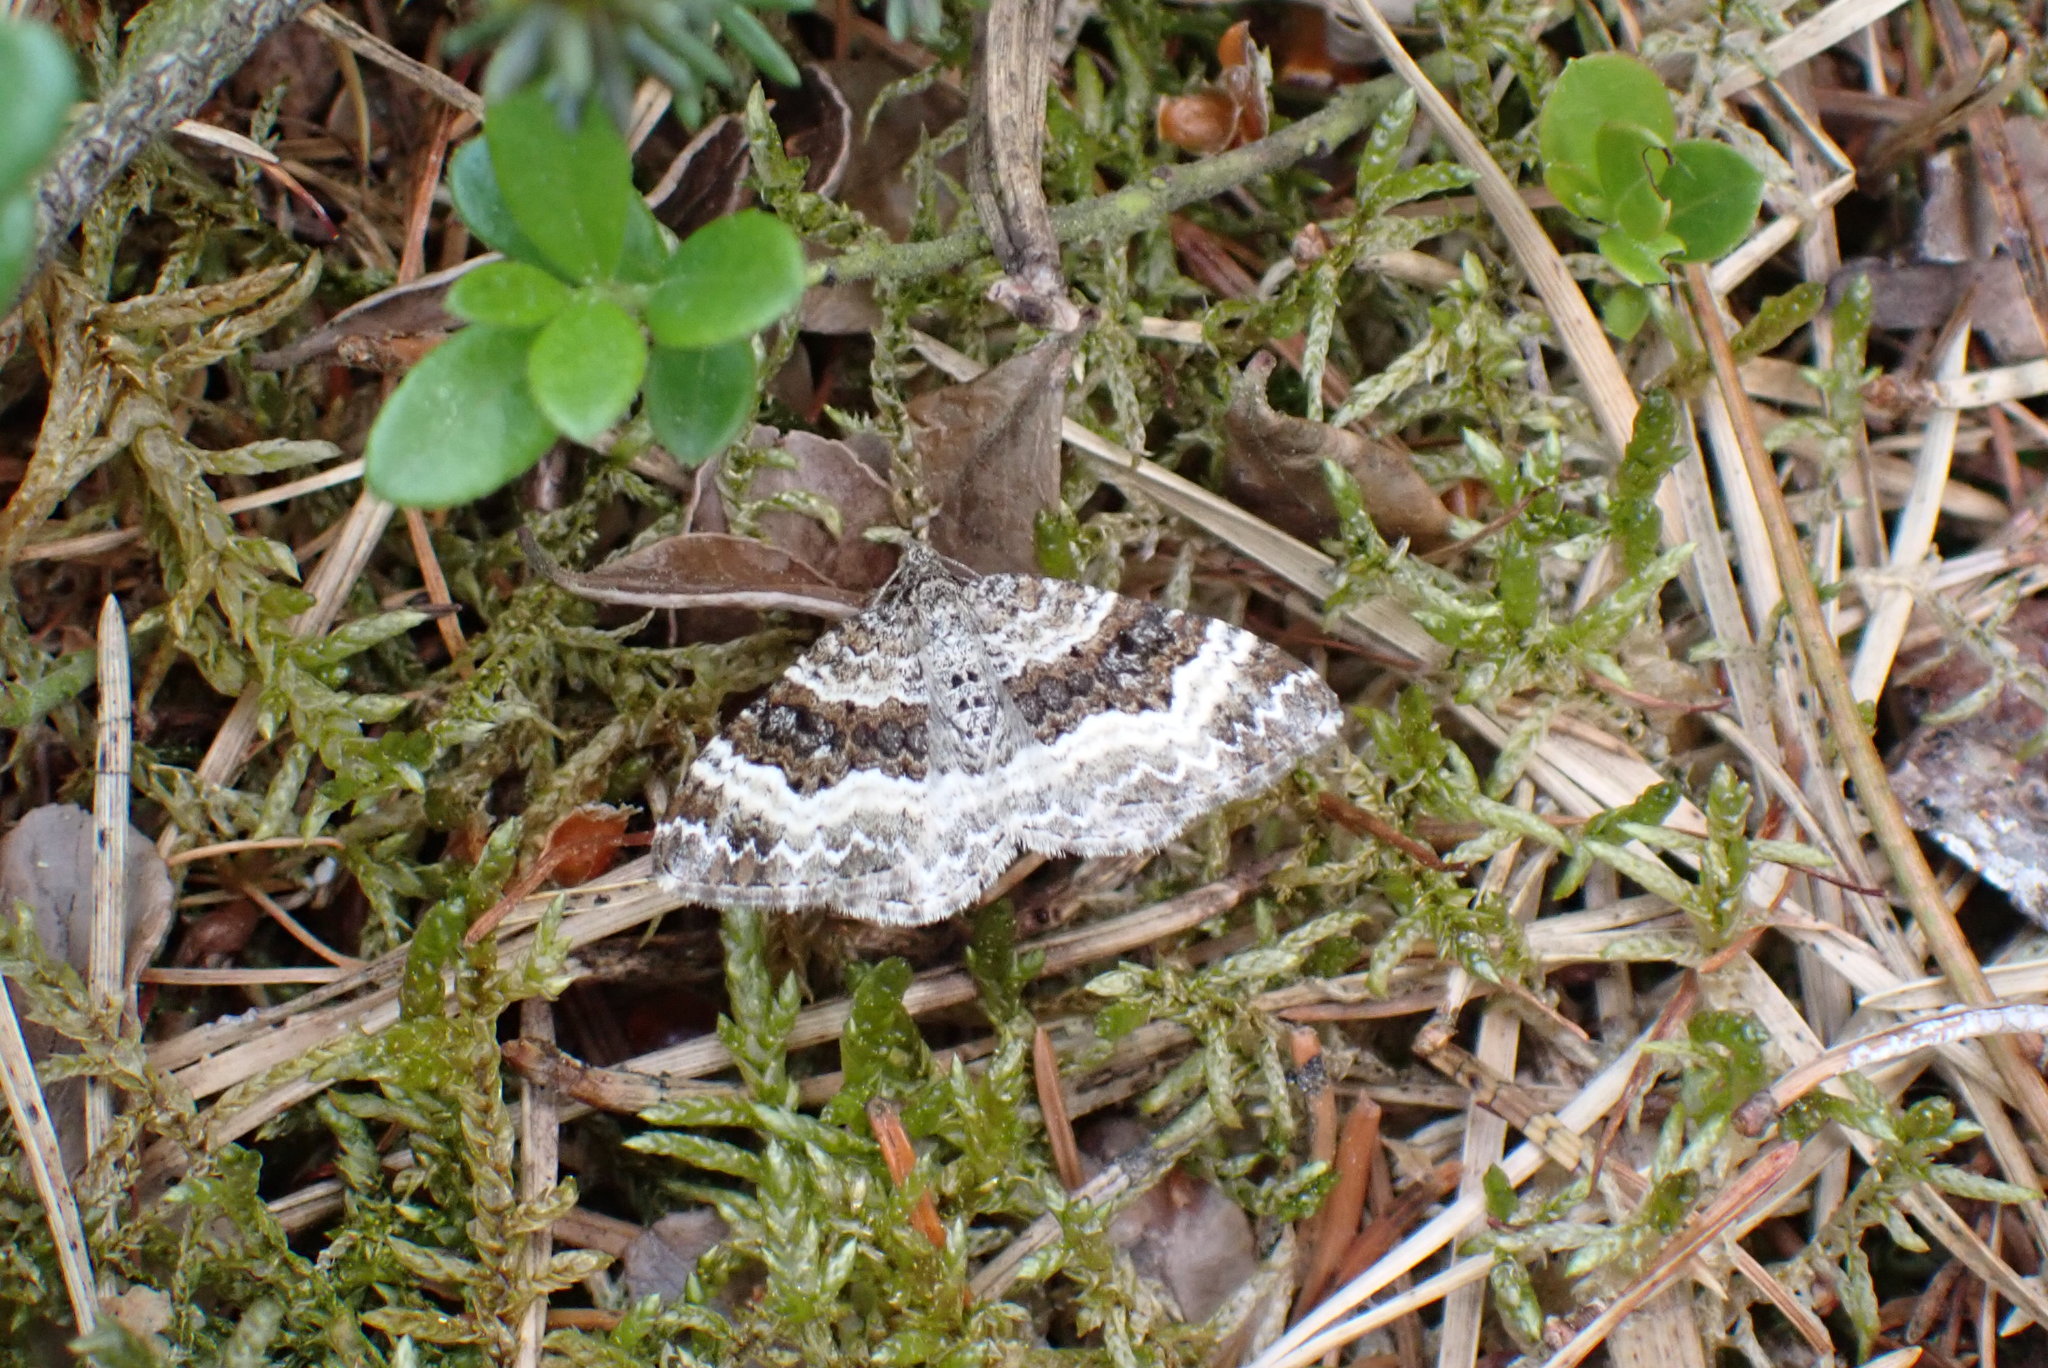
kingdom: Animalia
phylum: Arthropoda
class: Insecta
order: Lepidoptera
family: Geometridae
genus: Epirrhoe
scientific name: Epirrhoe alternata
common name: Common carpet
